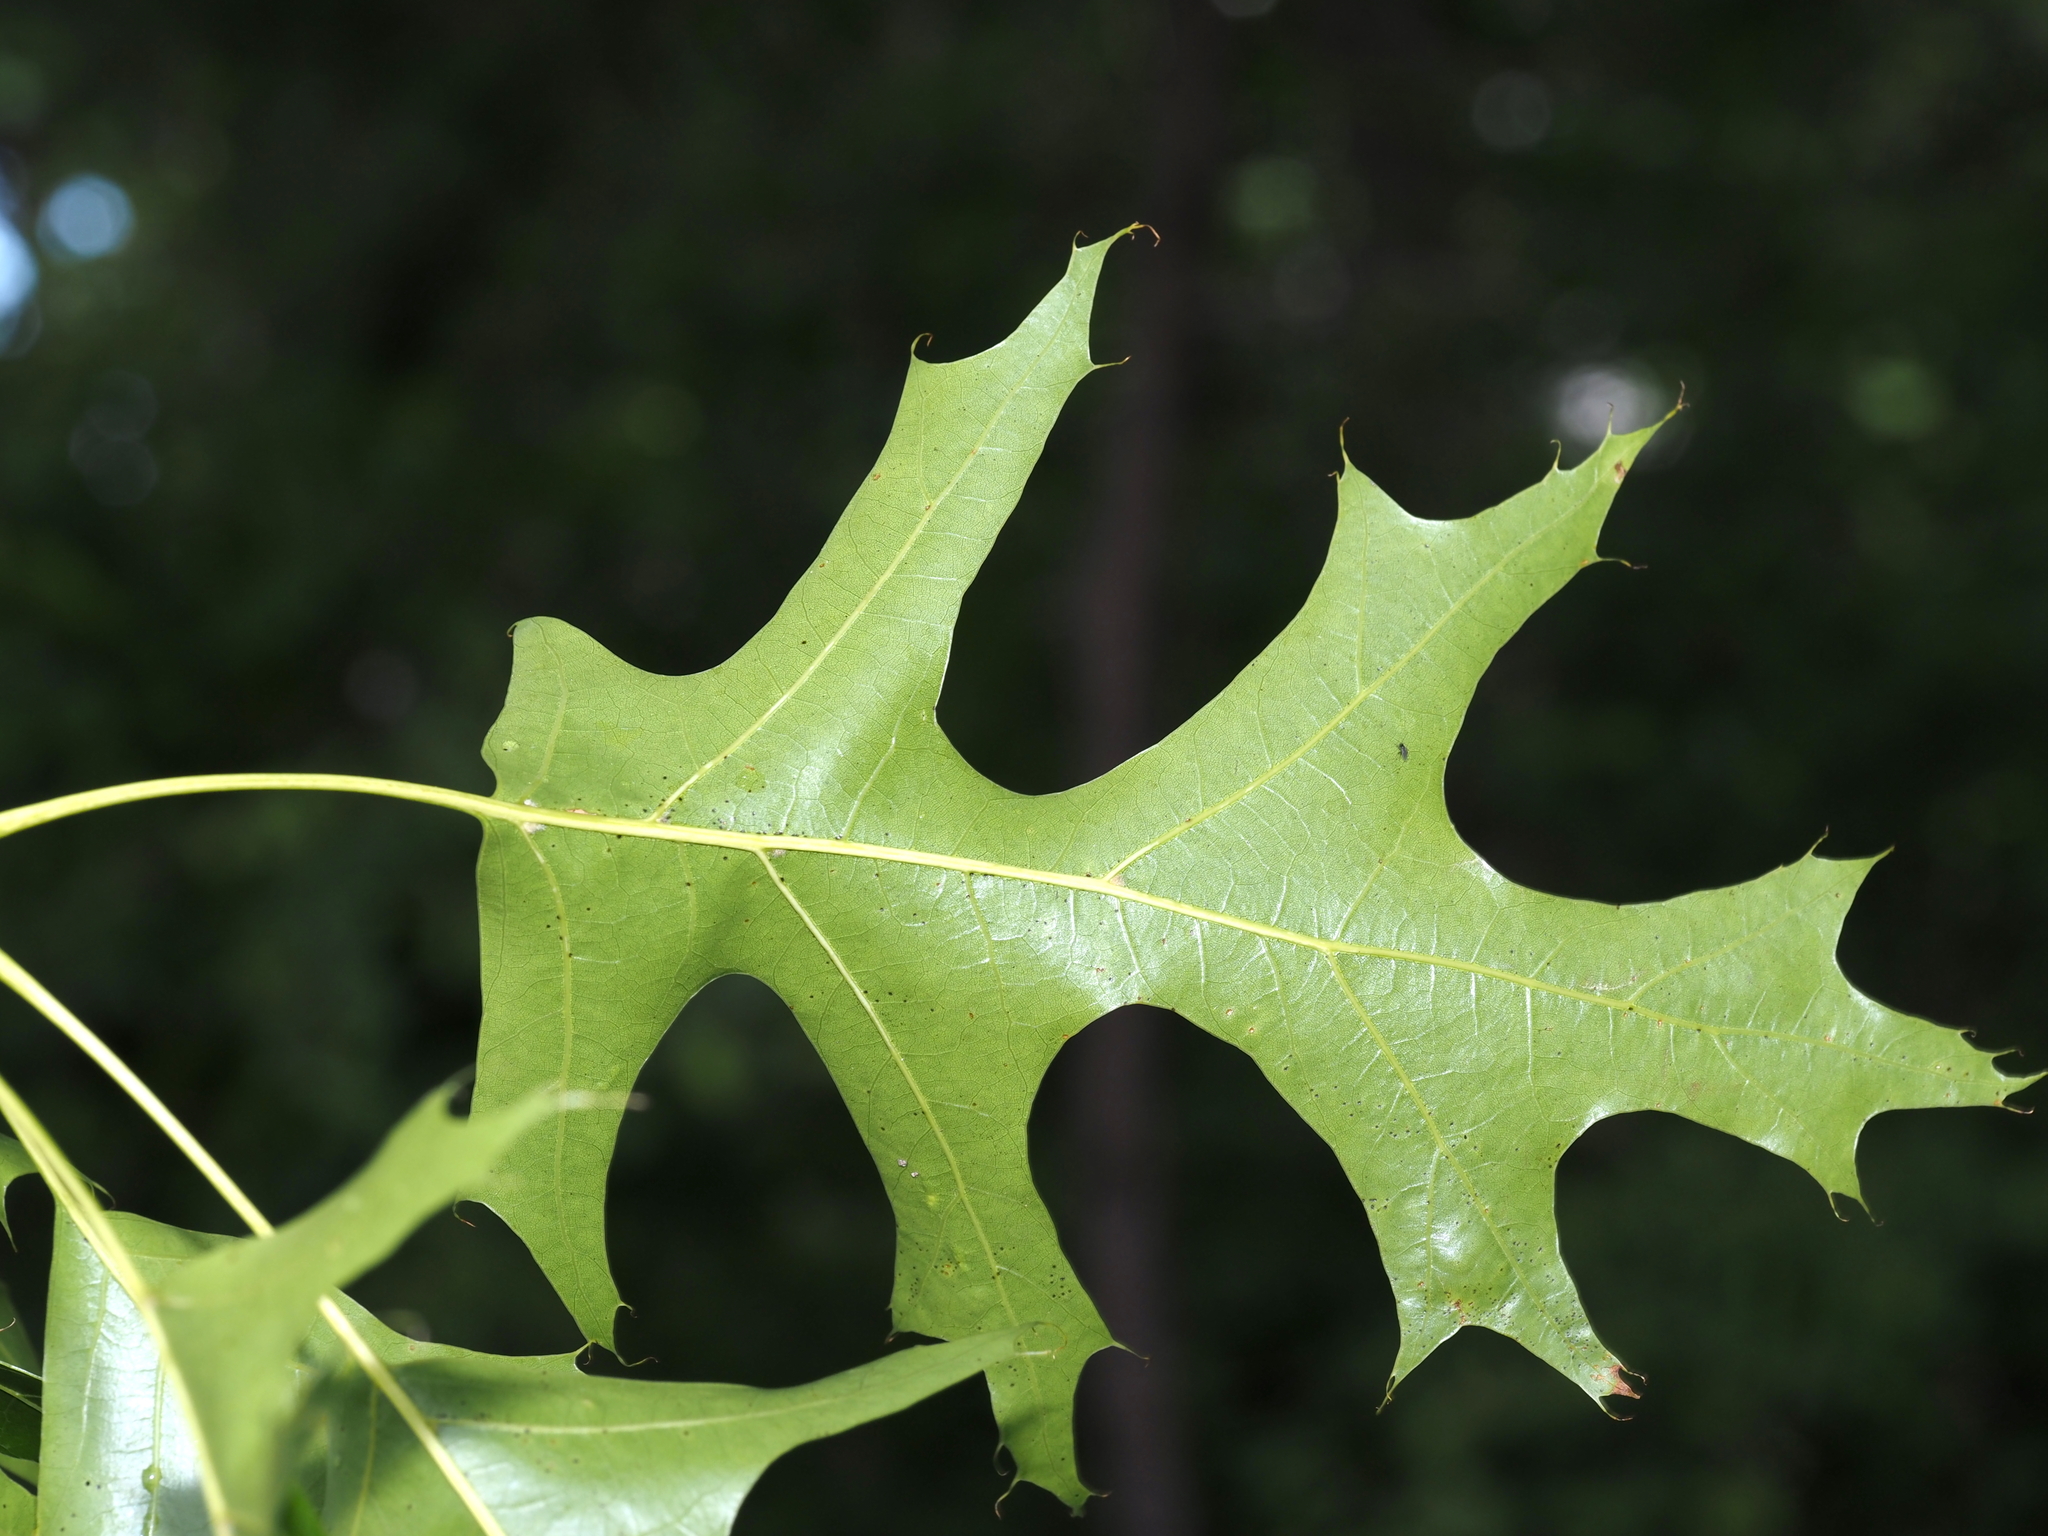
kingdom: Plantae
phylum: Tracheophyta
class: Magnoliopsida
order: Fagales
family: Fagaceae
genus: Quercus
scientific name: Quercus coccinea
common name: Scarlet oak
